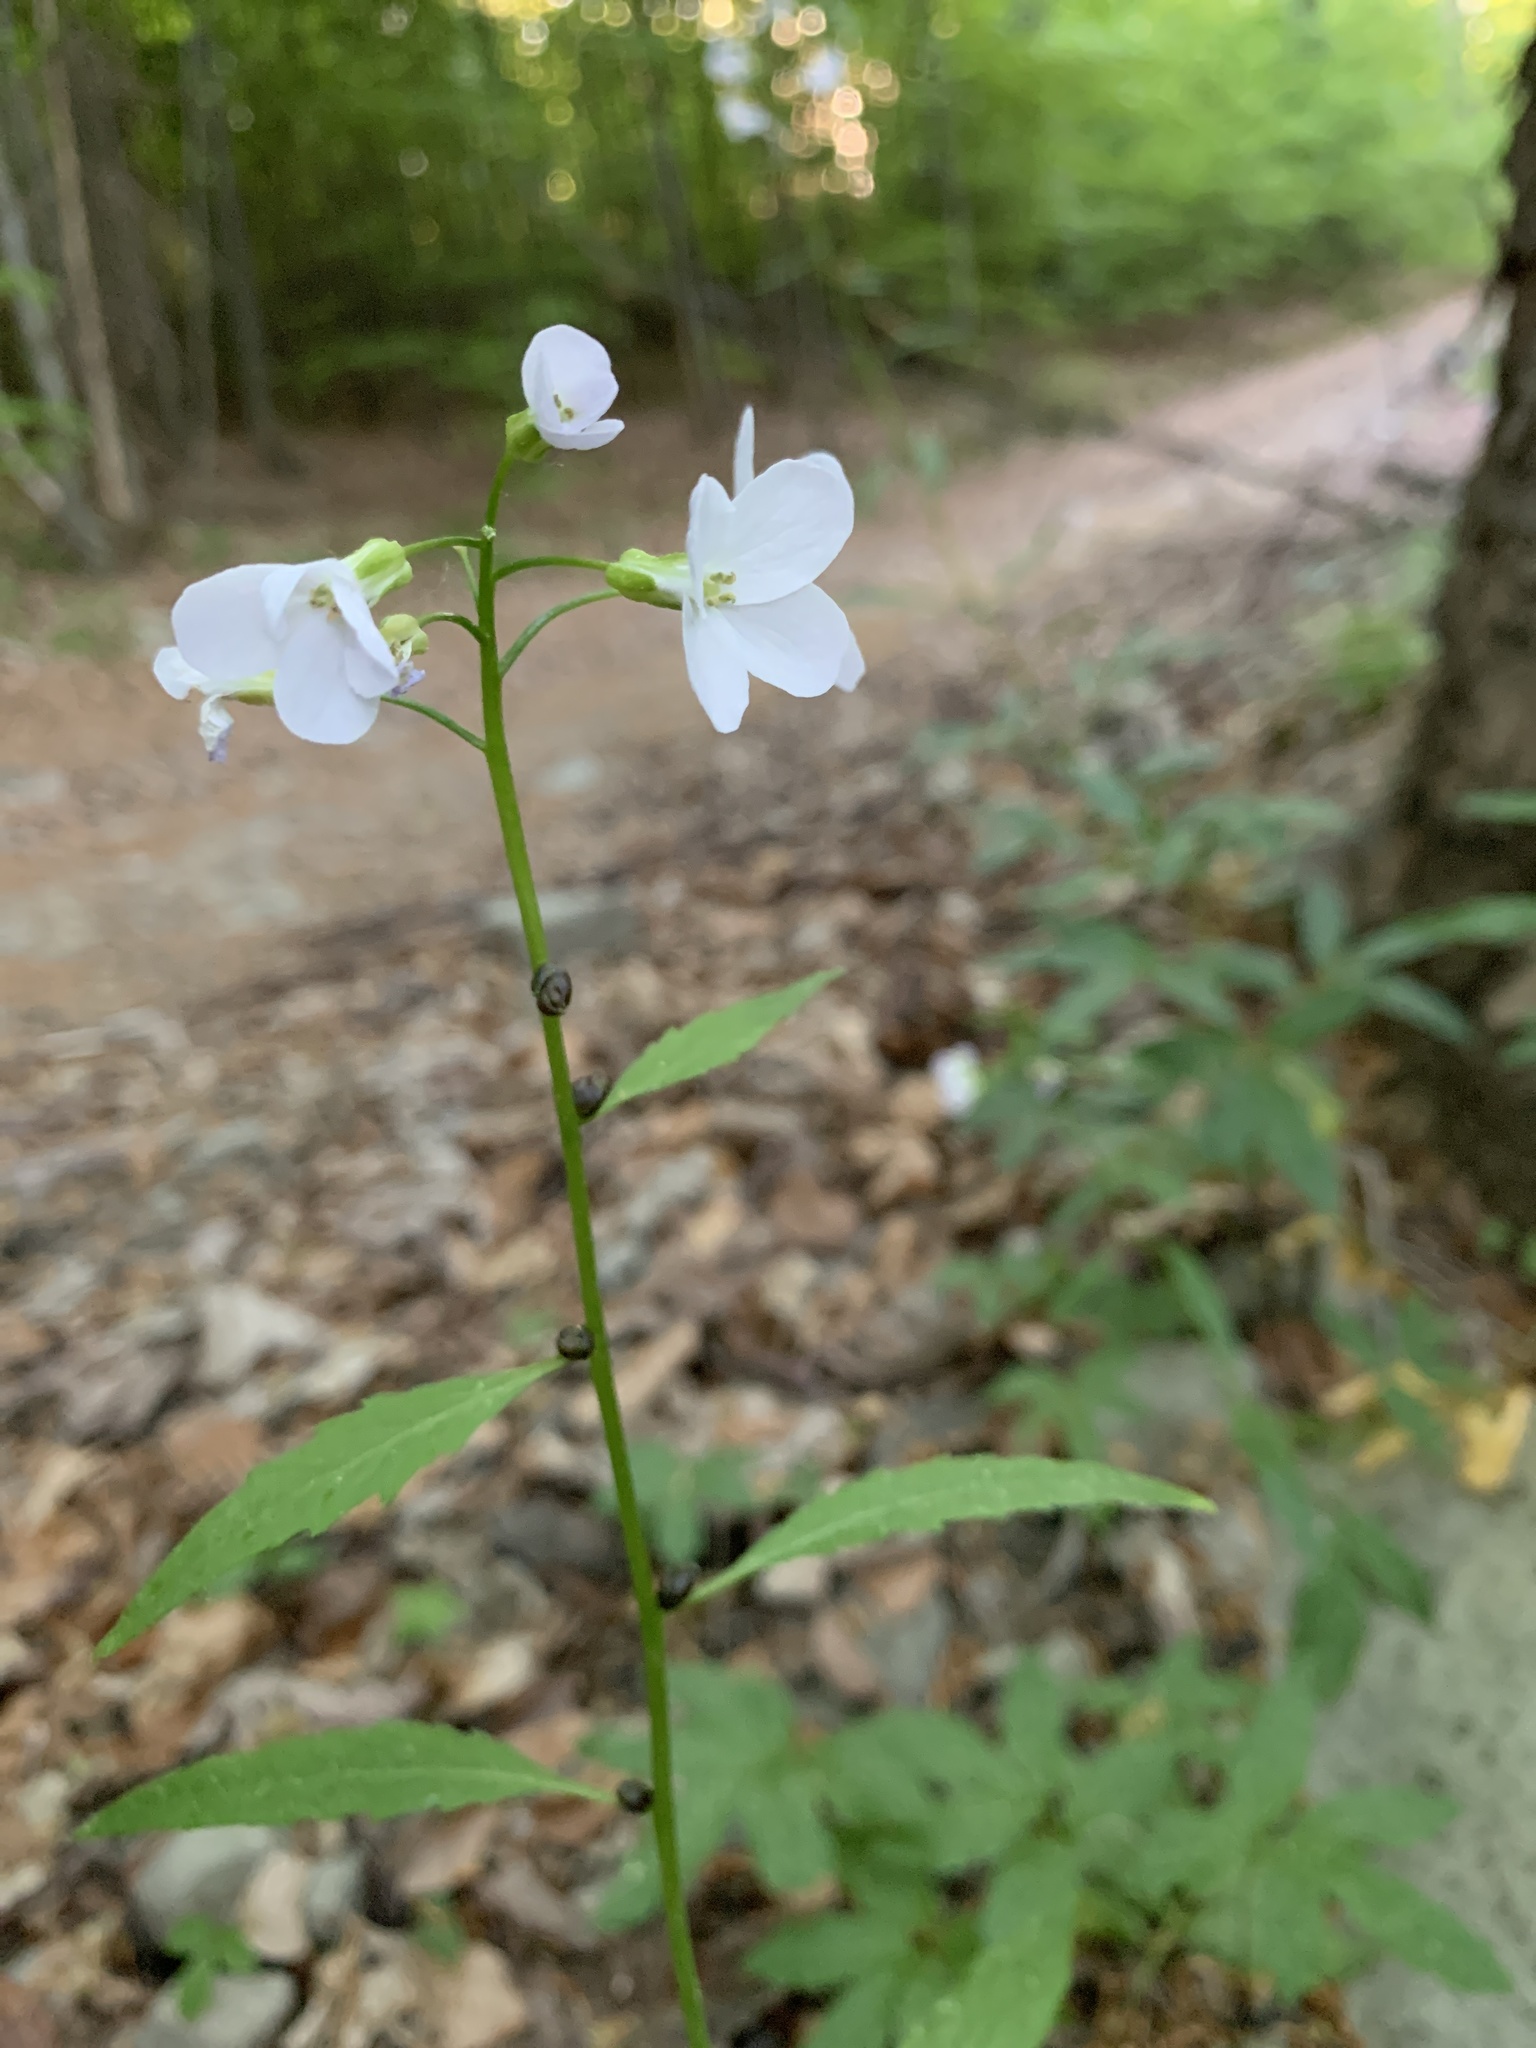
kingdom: Plantae
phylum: Tracheophyta
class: Magnoliopsida
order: Brassicales
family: Brassicaceae
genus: Cardamine
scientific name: Cardamine bulbifera
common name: Coralroot bittercress
